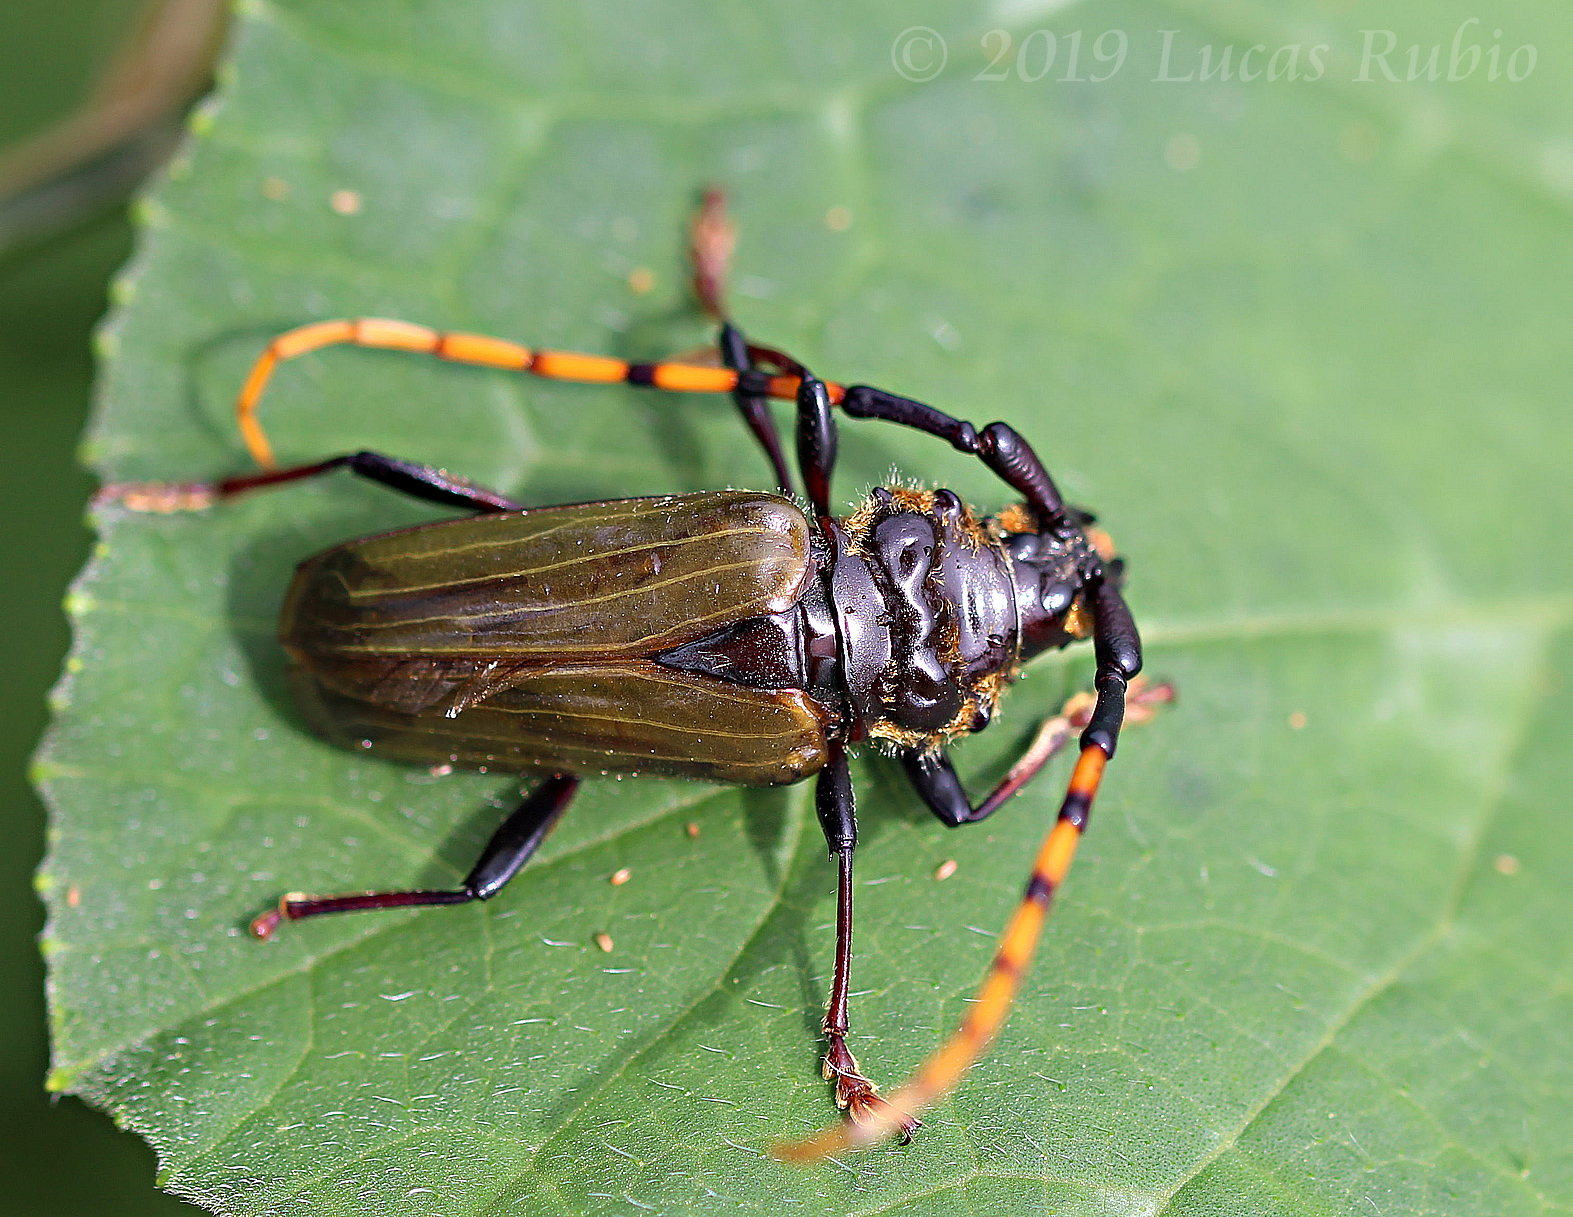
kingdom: Animalia
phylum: Arthropoda
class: Insecta
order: Coleoptera
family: Cerambycidae
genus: Retrachydes
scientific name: Retrachydes thoracicus
